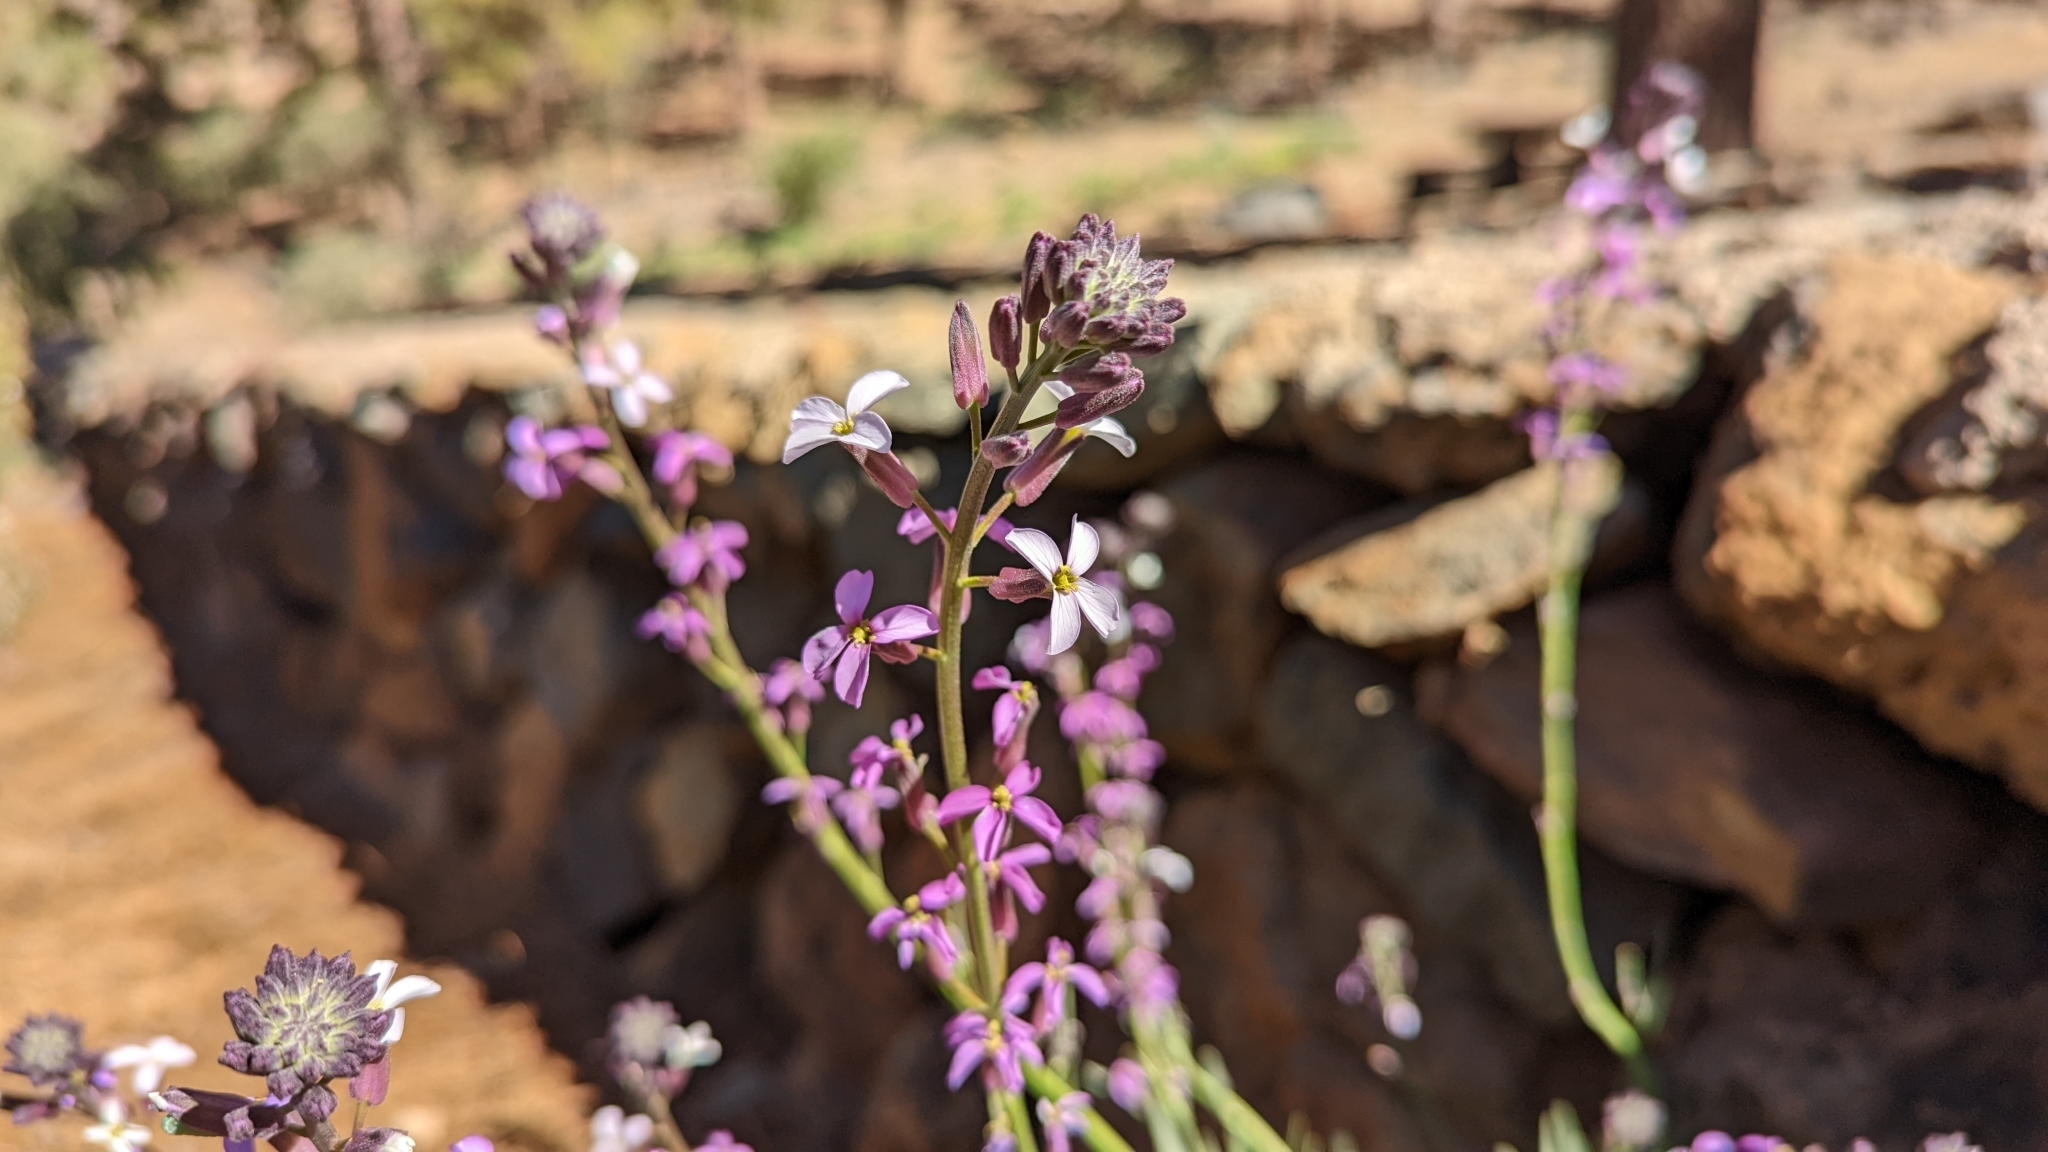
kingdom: Plantae
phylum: Tracheophyta
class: Magnoliopsida
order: Brassicales
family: Brassicaceae
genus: Erysimum
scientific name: Erysimum scoparium
